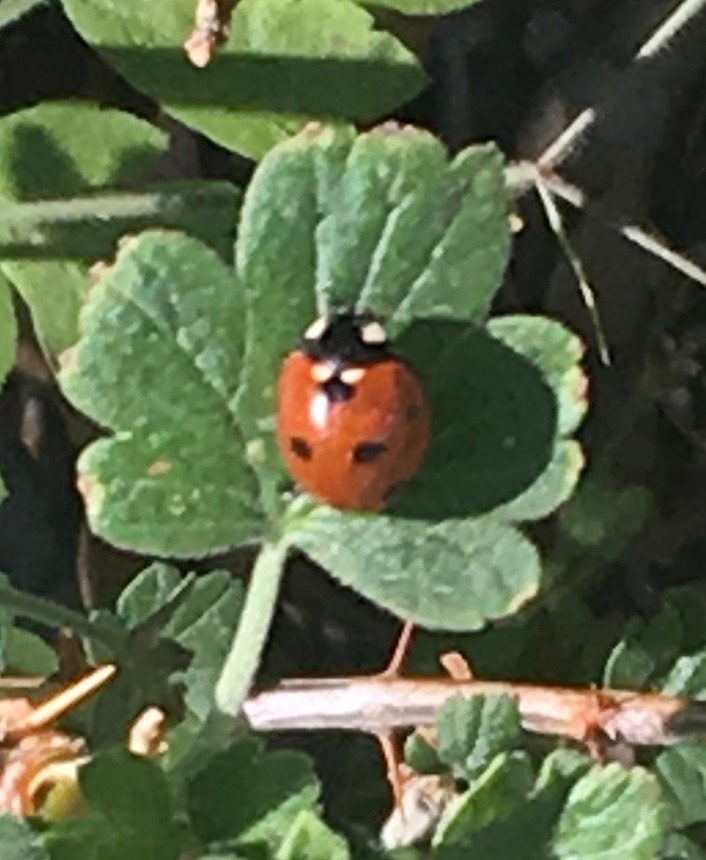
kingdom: Animalia
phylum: Arthropoda
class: Insecta
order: Coleoptera
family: Coccinellidae
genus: Coccinella
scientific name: Coccinella septempunctata
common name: Sevenspotted lady beetle
